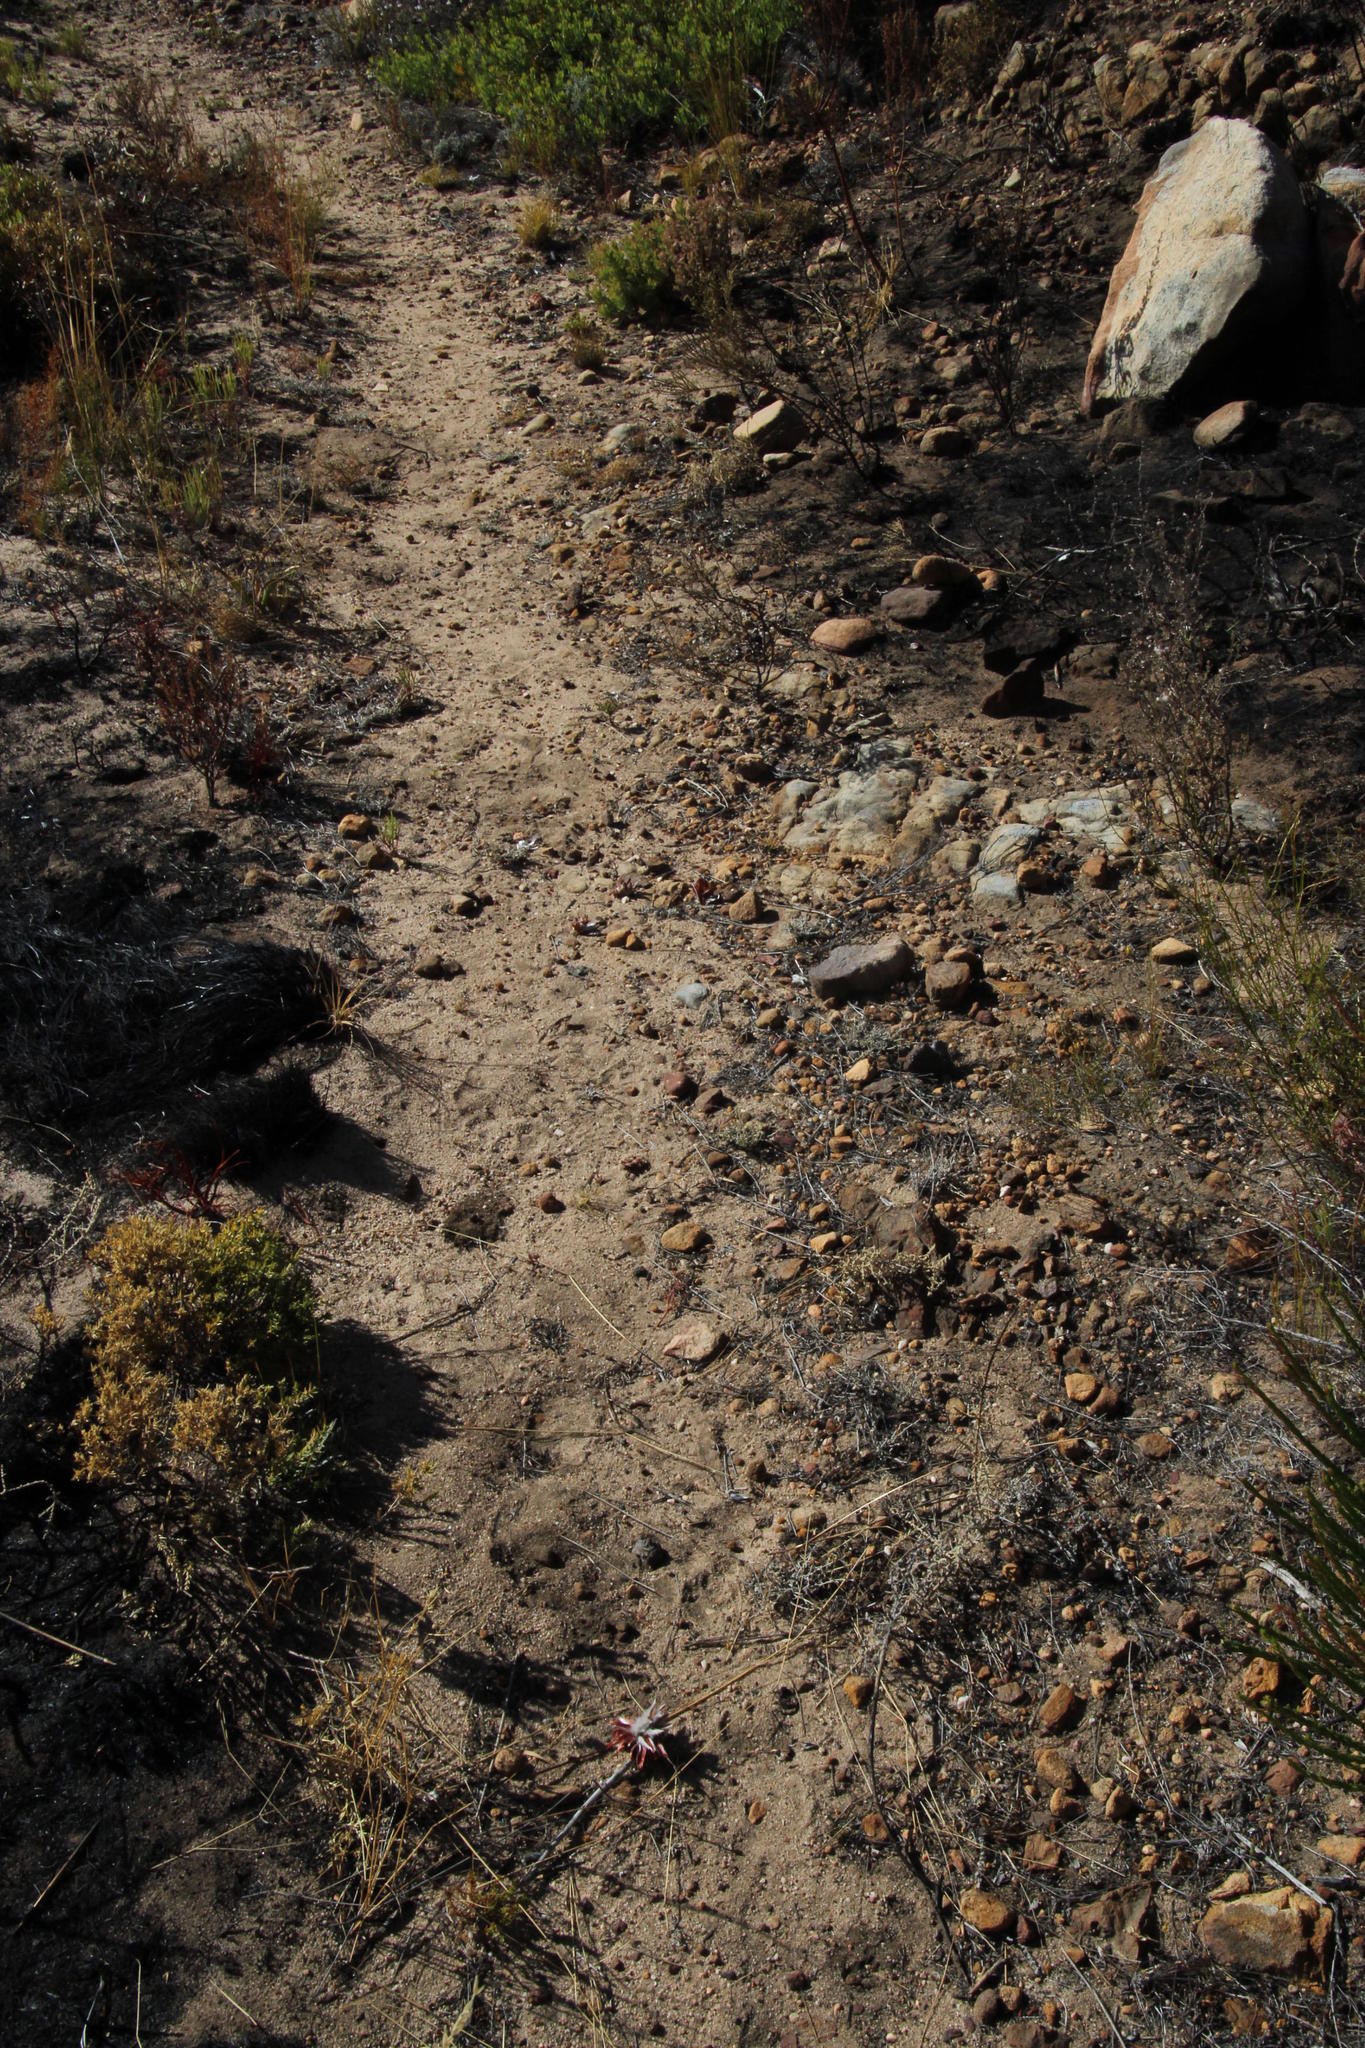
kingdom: Plantae
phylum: Tracheophyta
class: Magnoliopsida
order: Proteales
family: Proteaceae
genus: Leucadendron
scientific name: Leucadendron rubrum
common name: Spinning top
